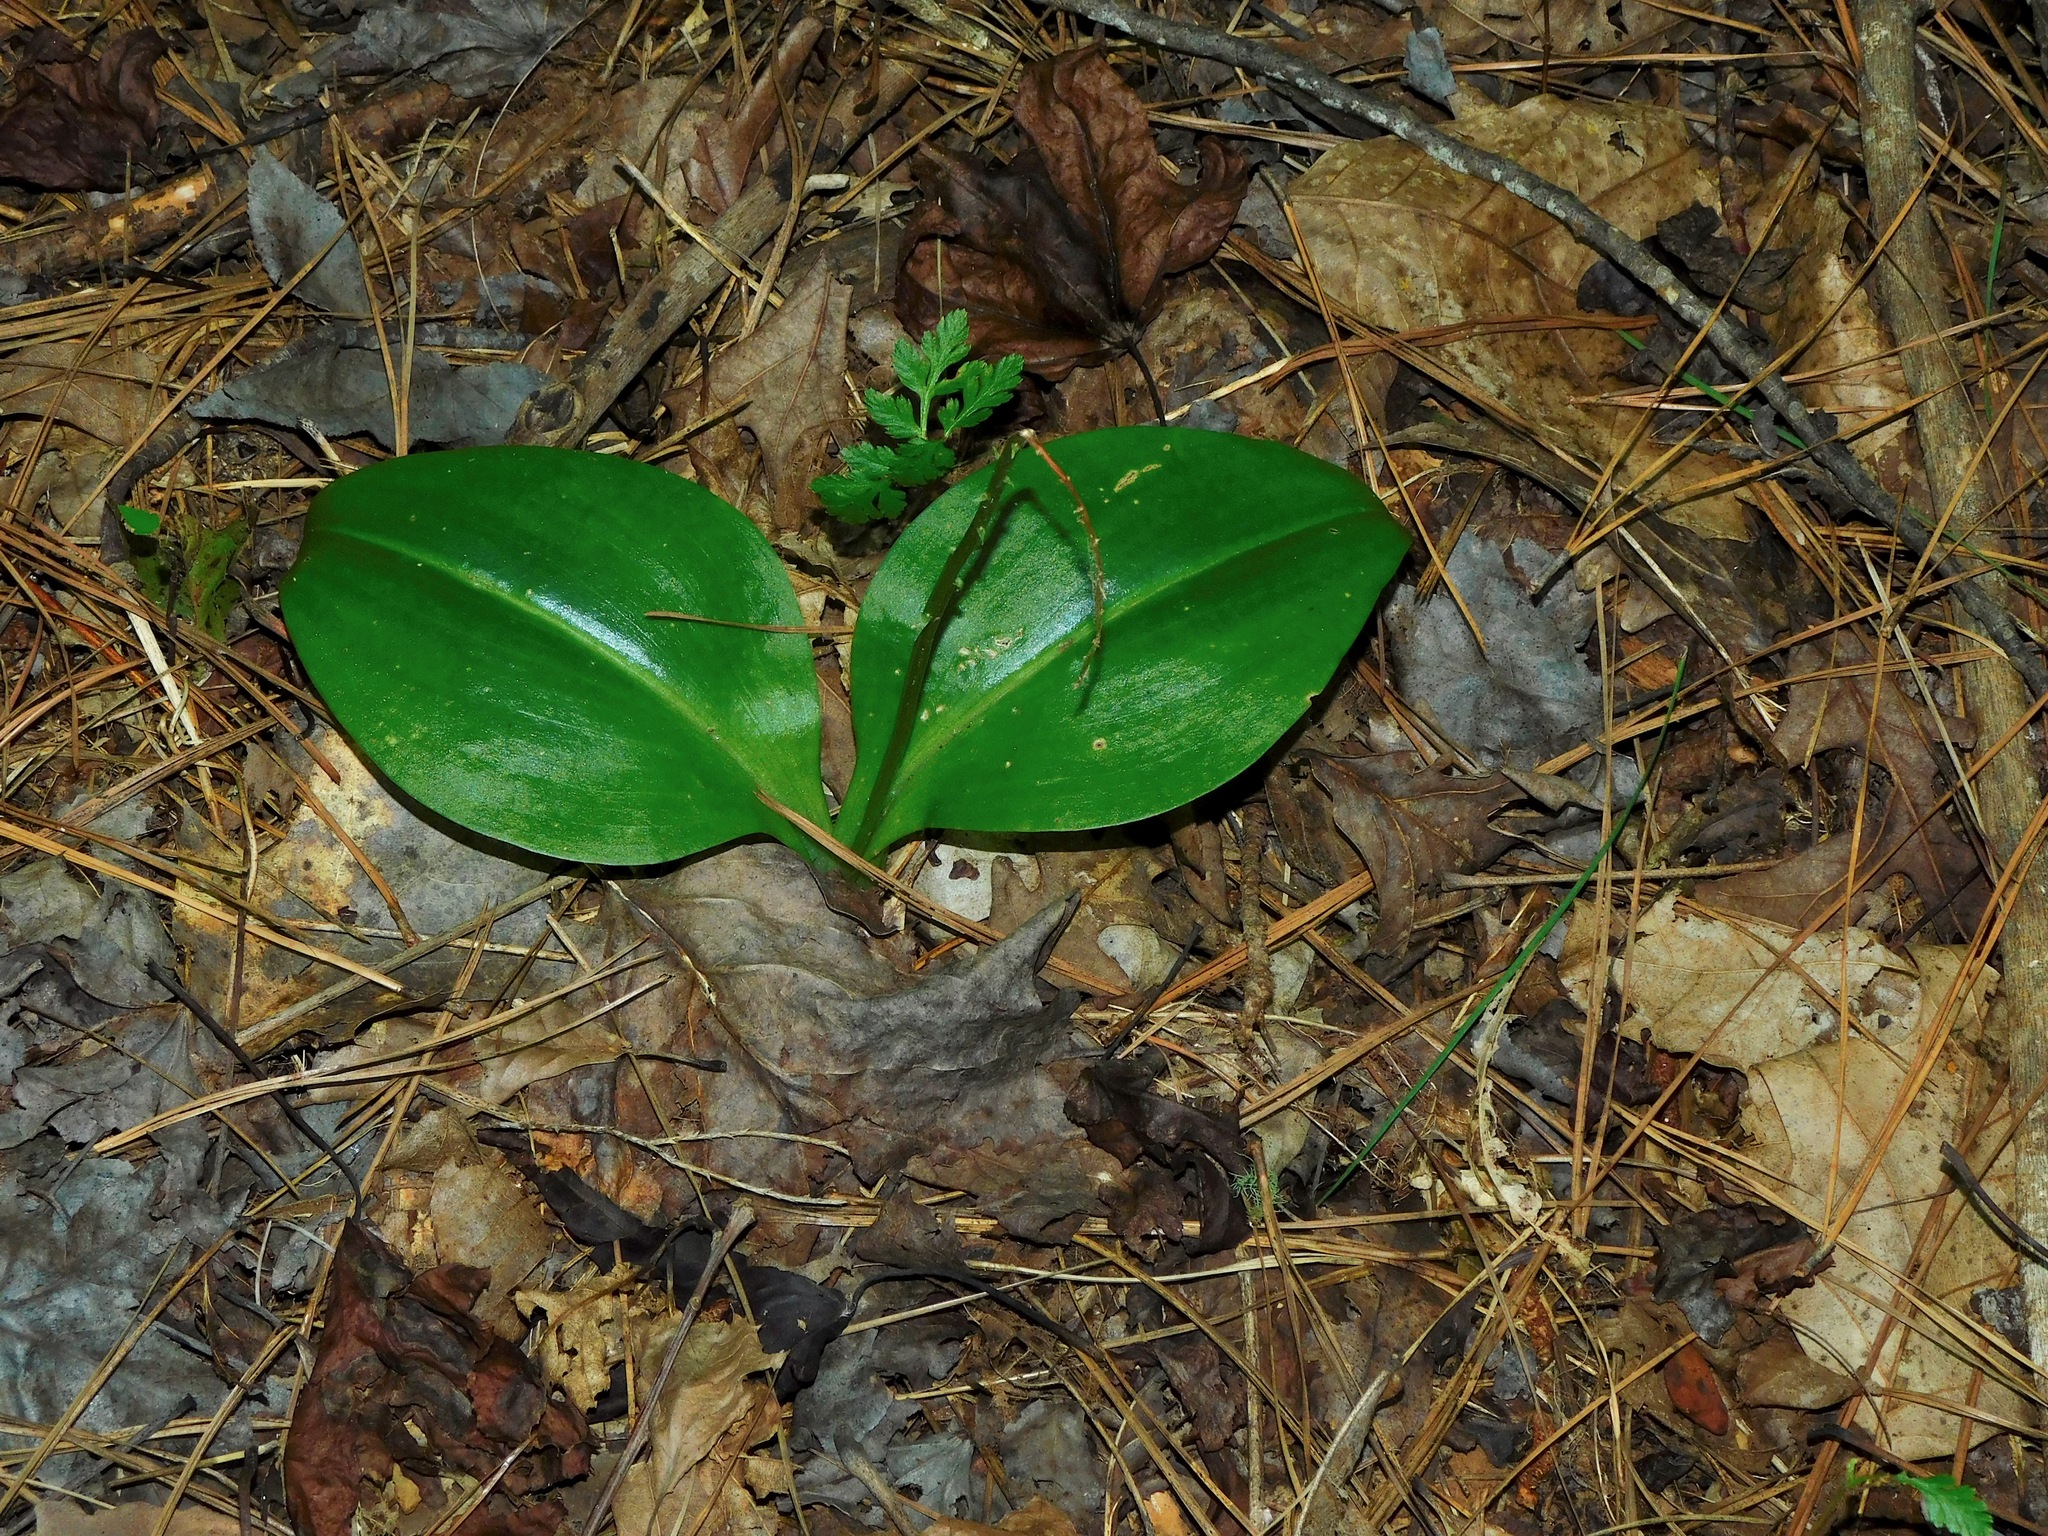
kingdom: Plantae
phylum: Tracheophyta
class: Liliopsida
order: Asparagales
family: Orchidaceae
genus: Galearis
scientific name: Galearis spectabilis
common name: Purple-hooded orchis
